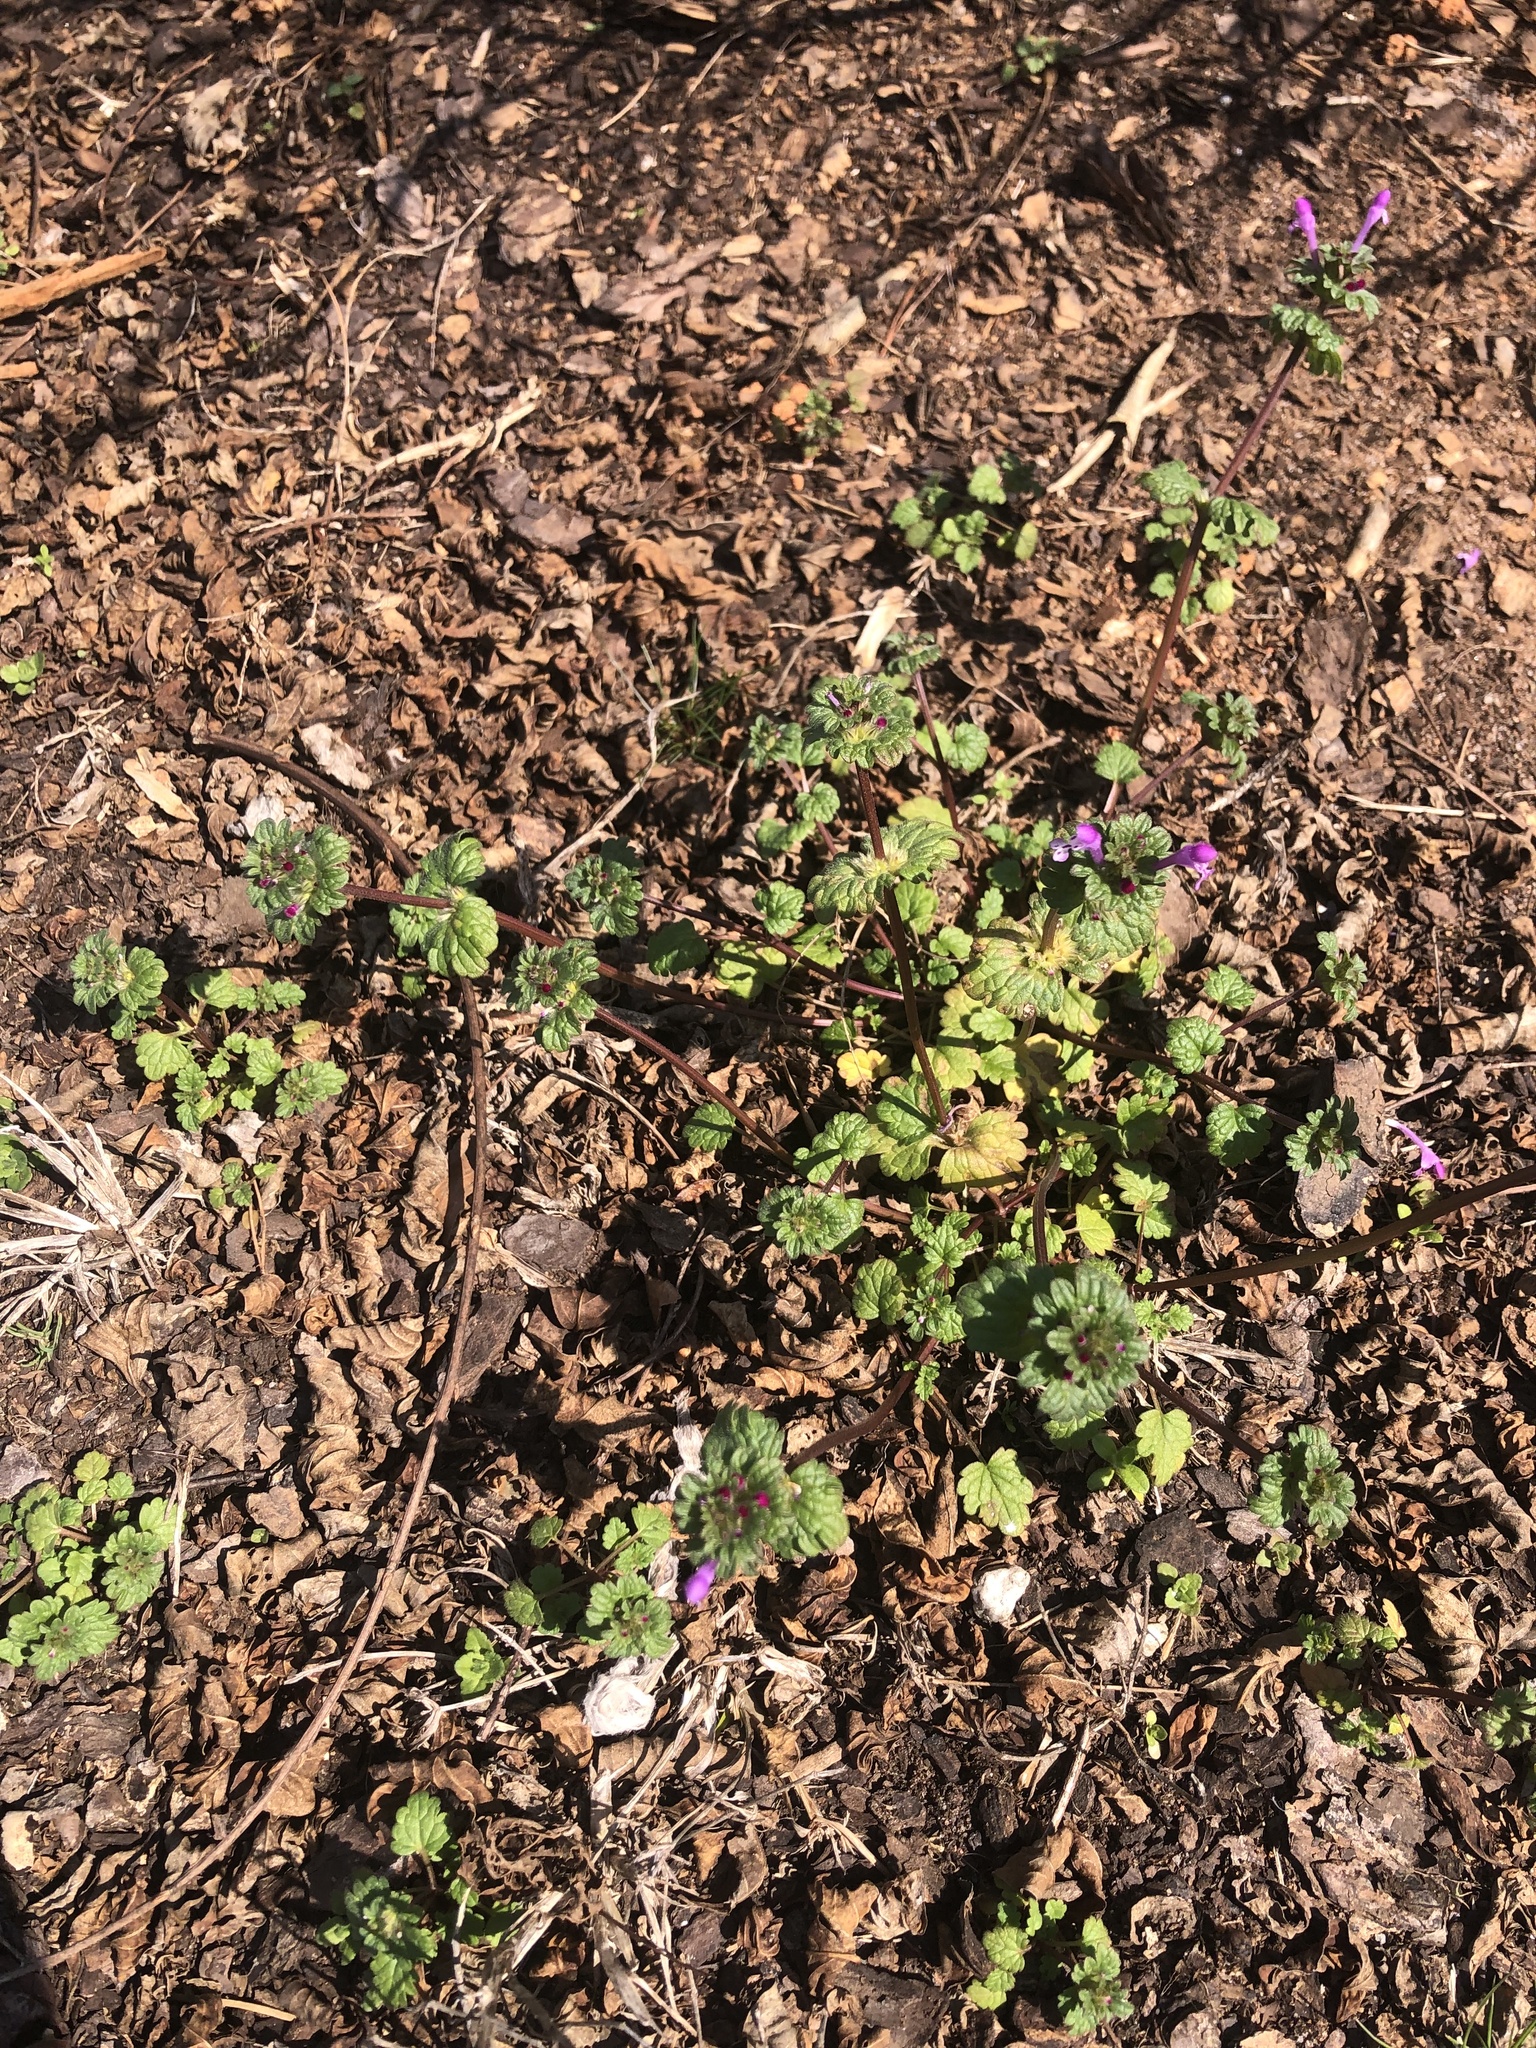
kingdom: Plantae
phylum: Tracheophyta
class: Magnoliopsida
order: Lamiales
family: Lamiaceae
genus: Lamium
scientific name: Lamium amplexicaule
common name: Henbit dead-nettle
